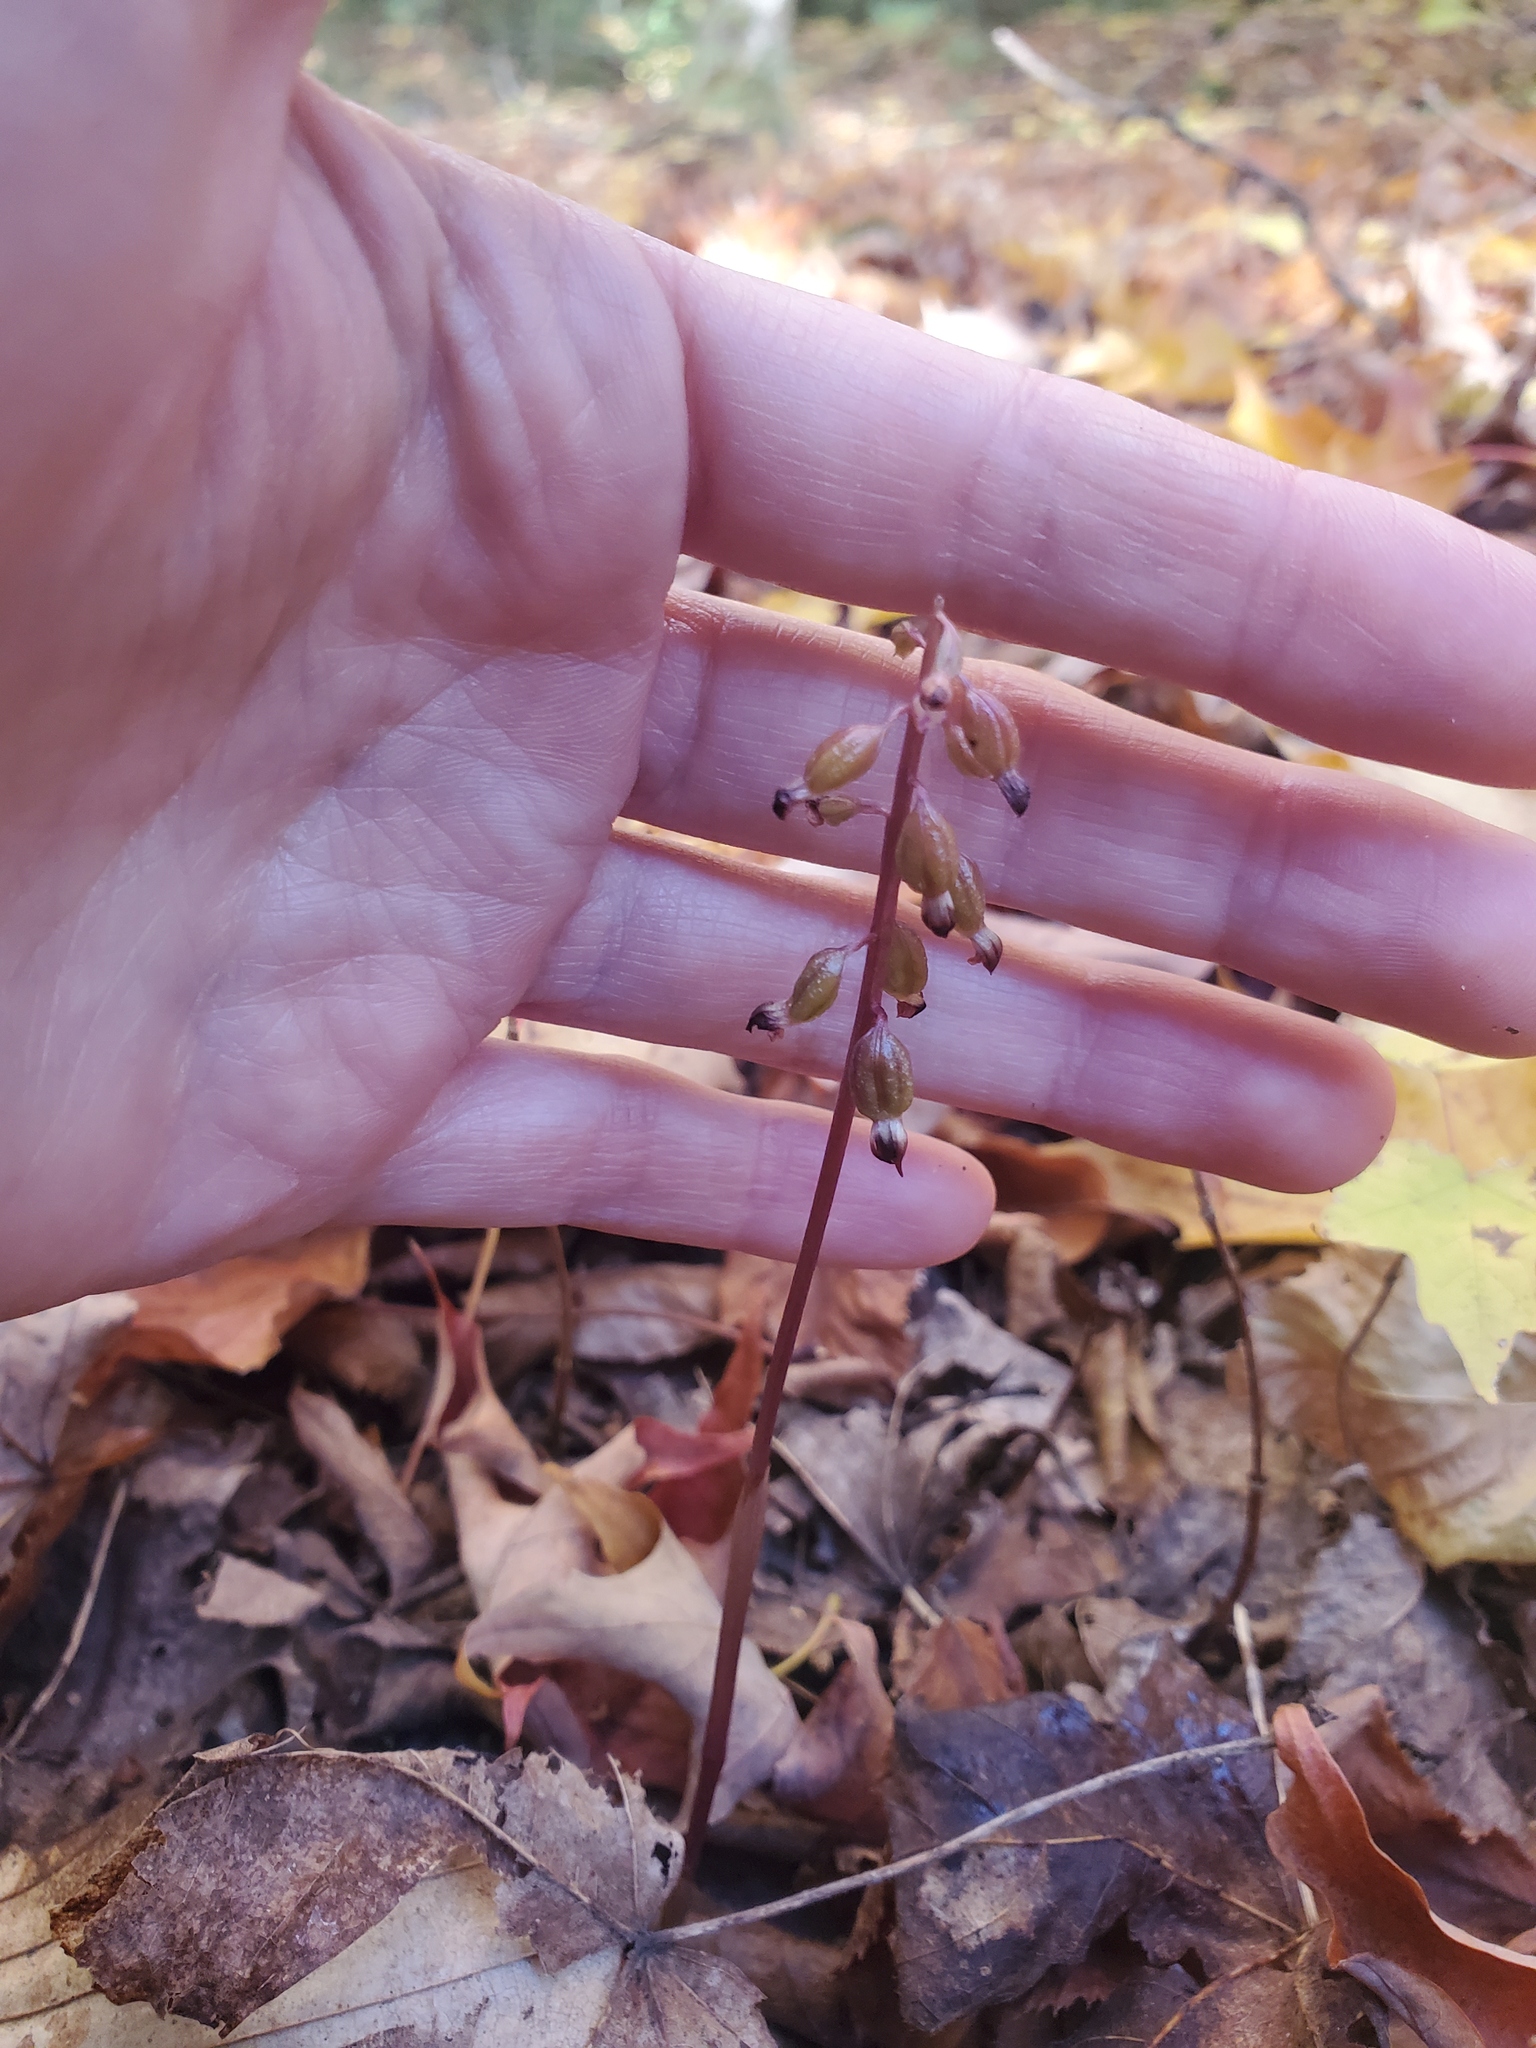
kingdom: Plantae
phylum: Tracheophyta
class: Liliopsida
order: Asparagales
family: Orchidaceae
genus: Corallorhiza
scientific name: Corallorhiza odontorhiza
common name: Autumn coralroot
